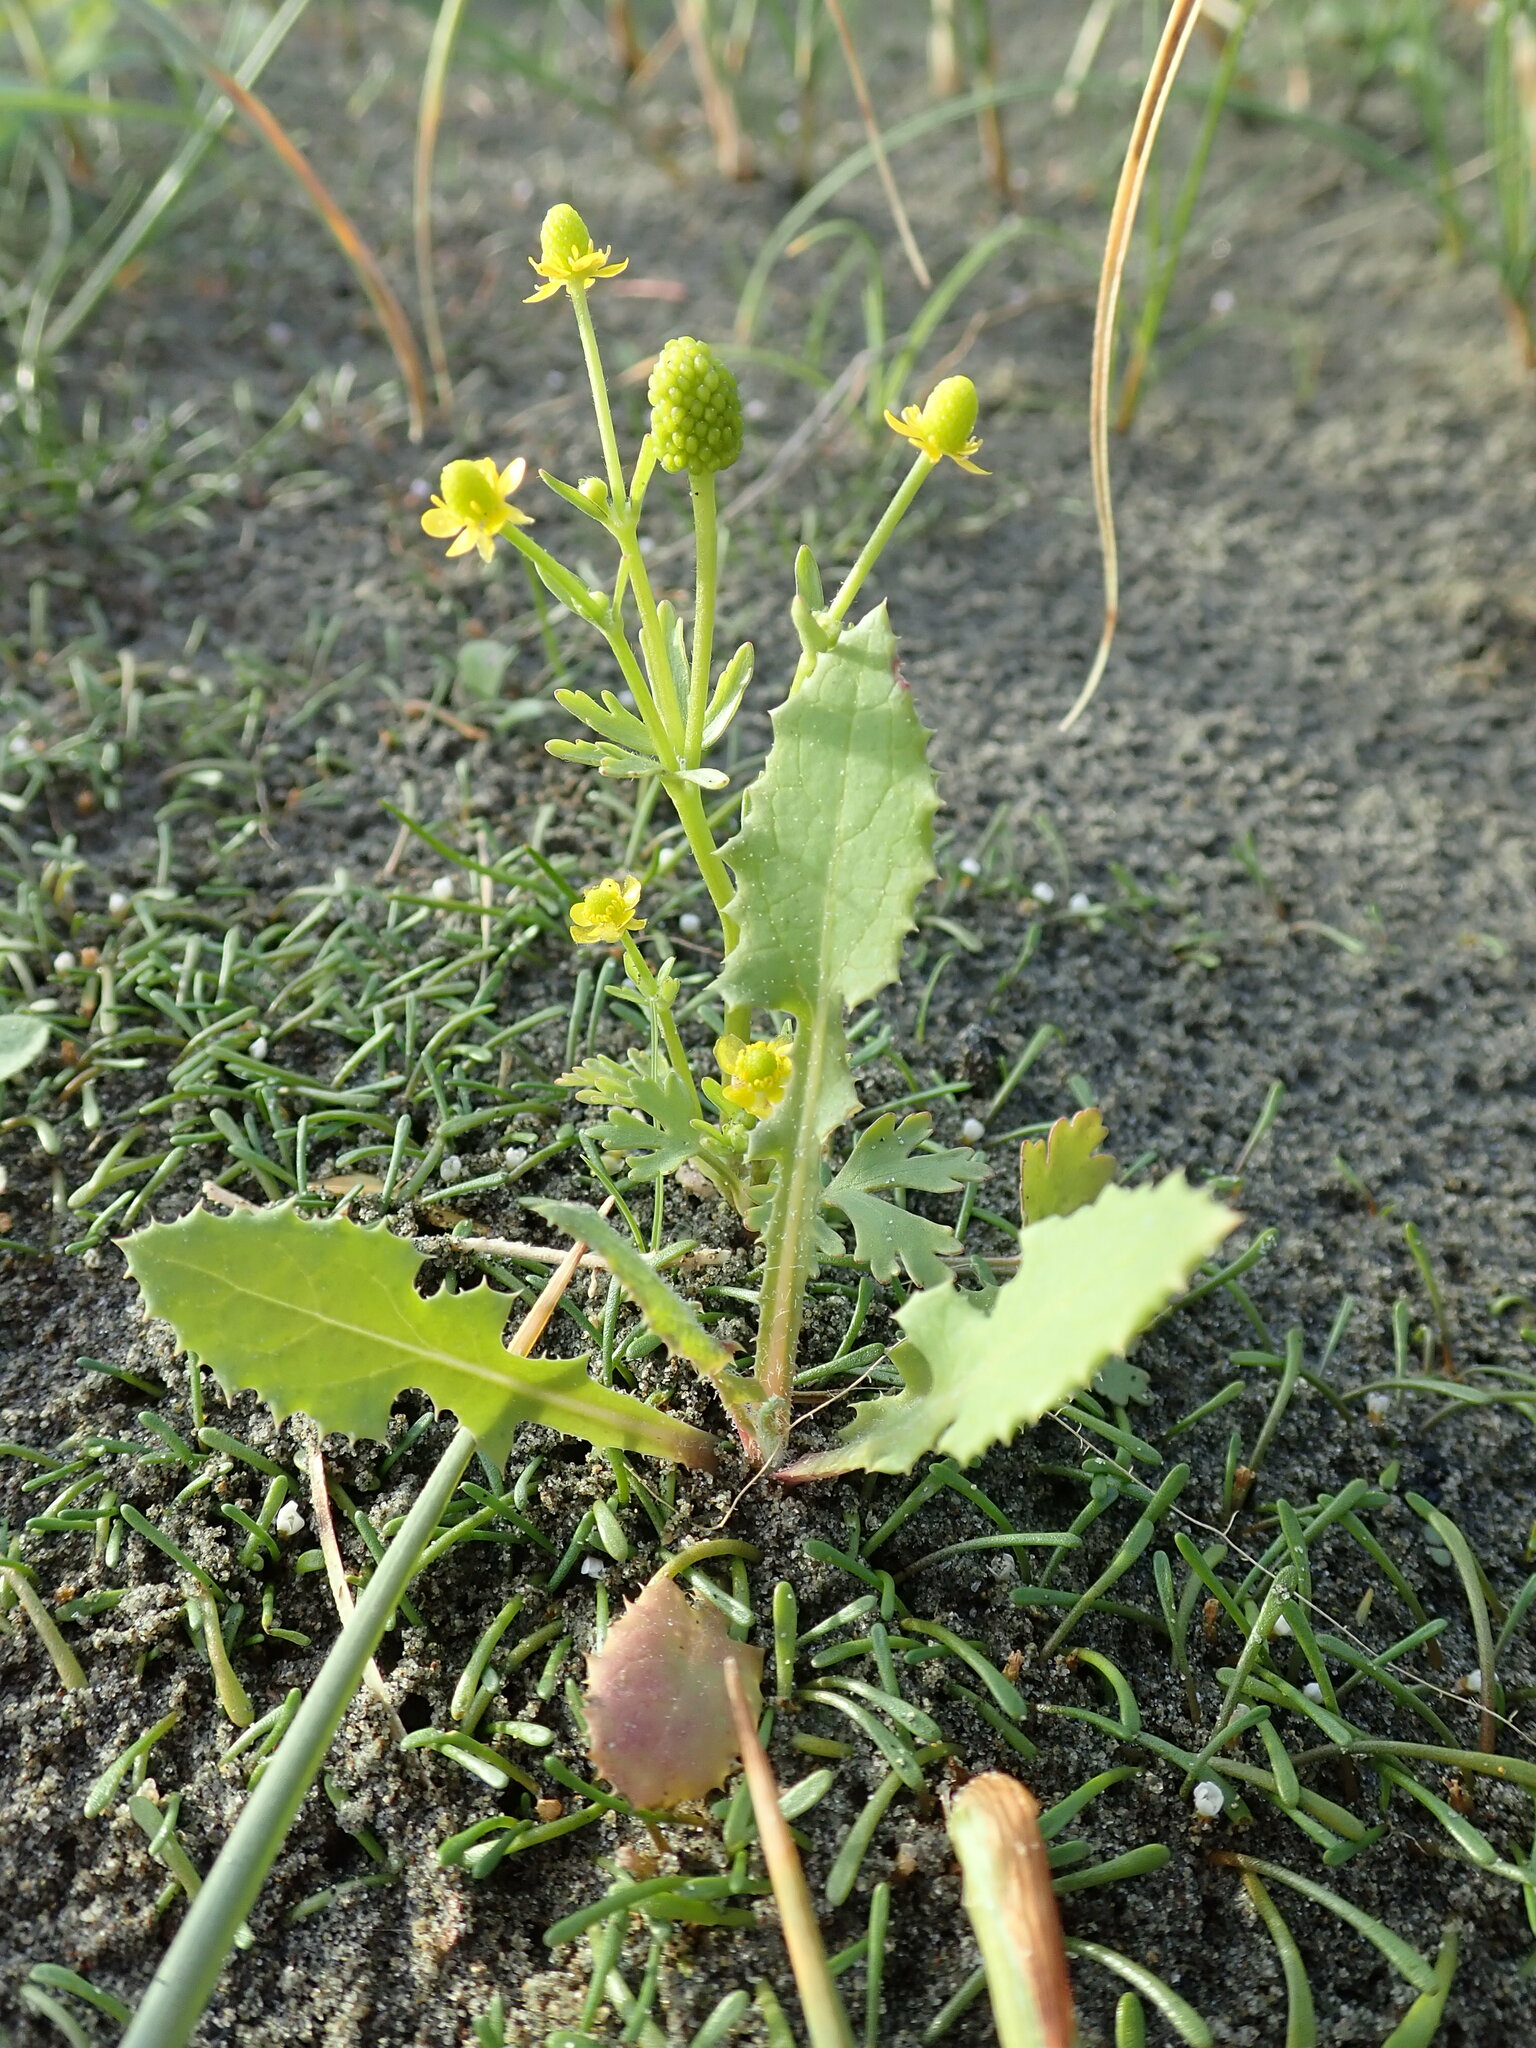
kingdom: Plantae
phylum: Tracheophyta
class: Magnoliopsida
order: Ranunculales
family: Ranunculaceae
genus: Ranunculus
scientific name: Ranunculus sceleratus
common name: Celery-leaved buttercup
